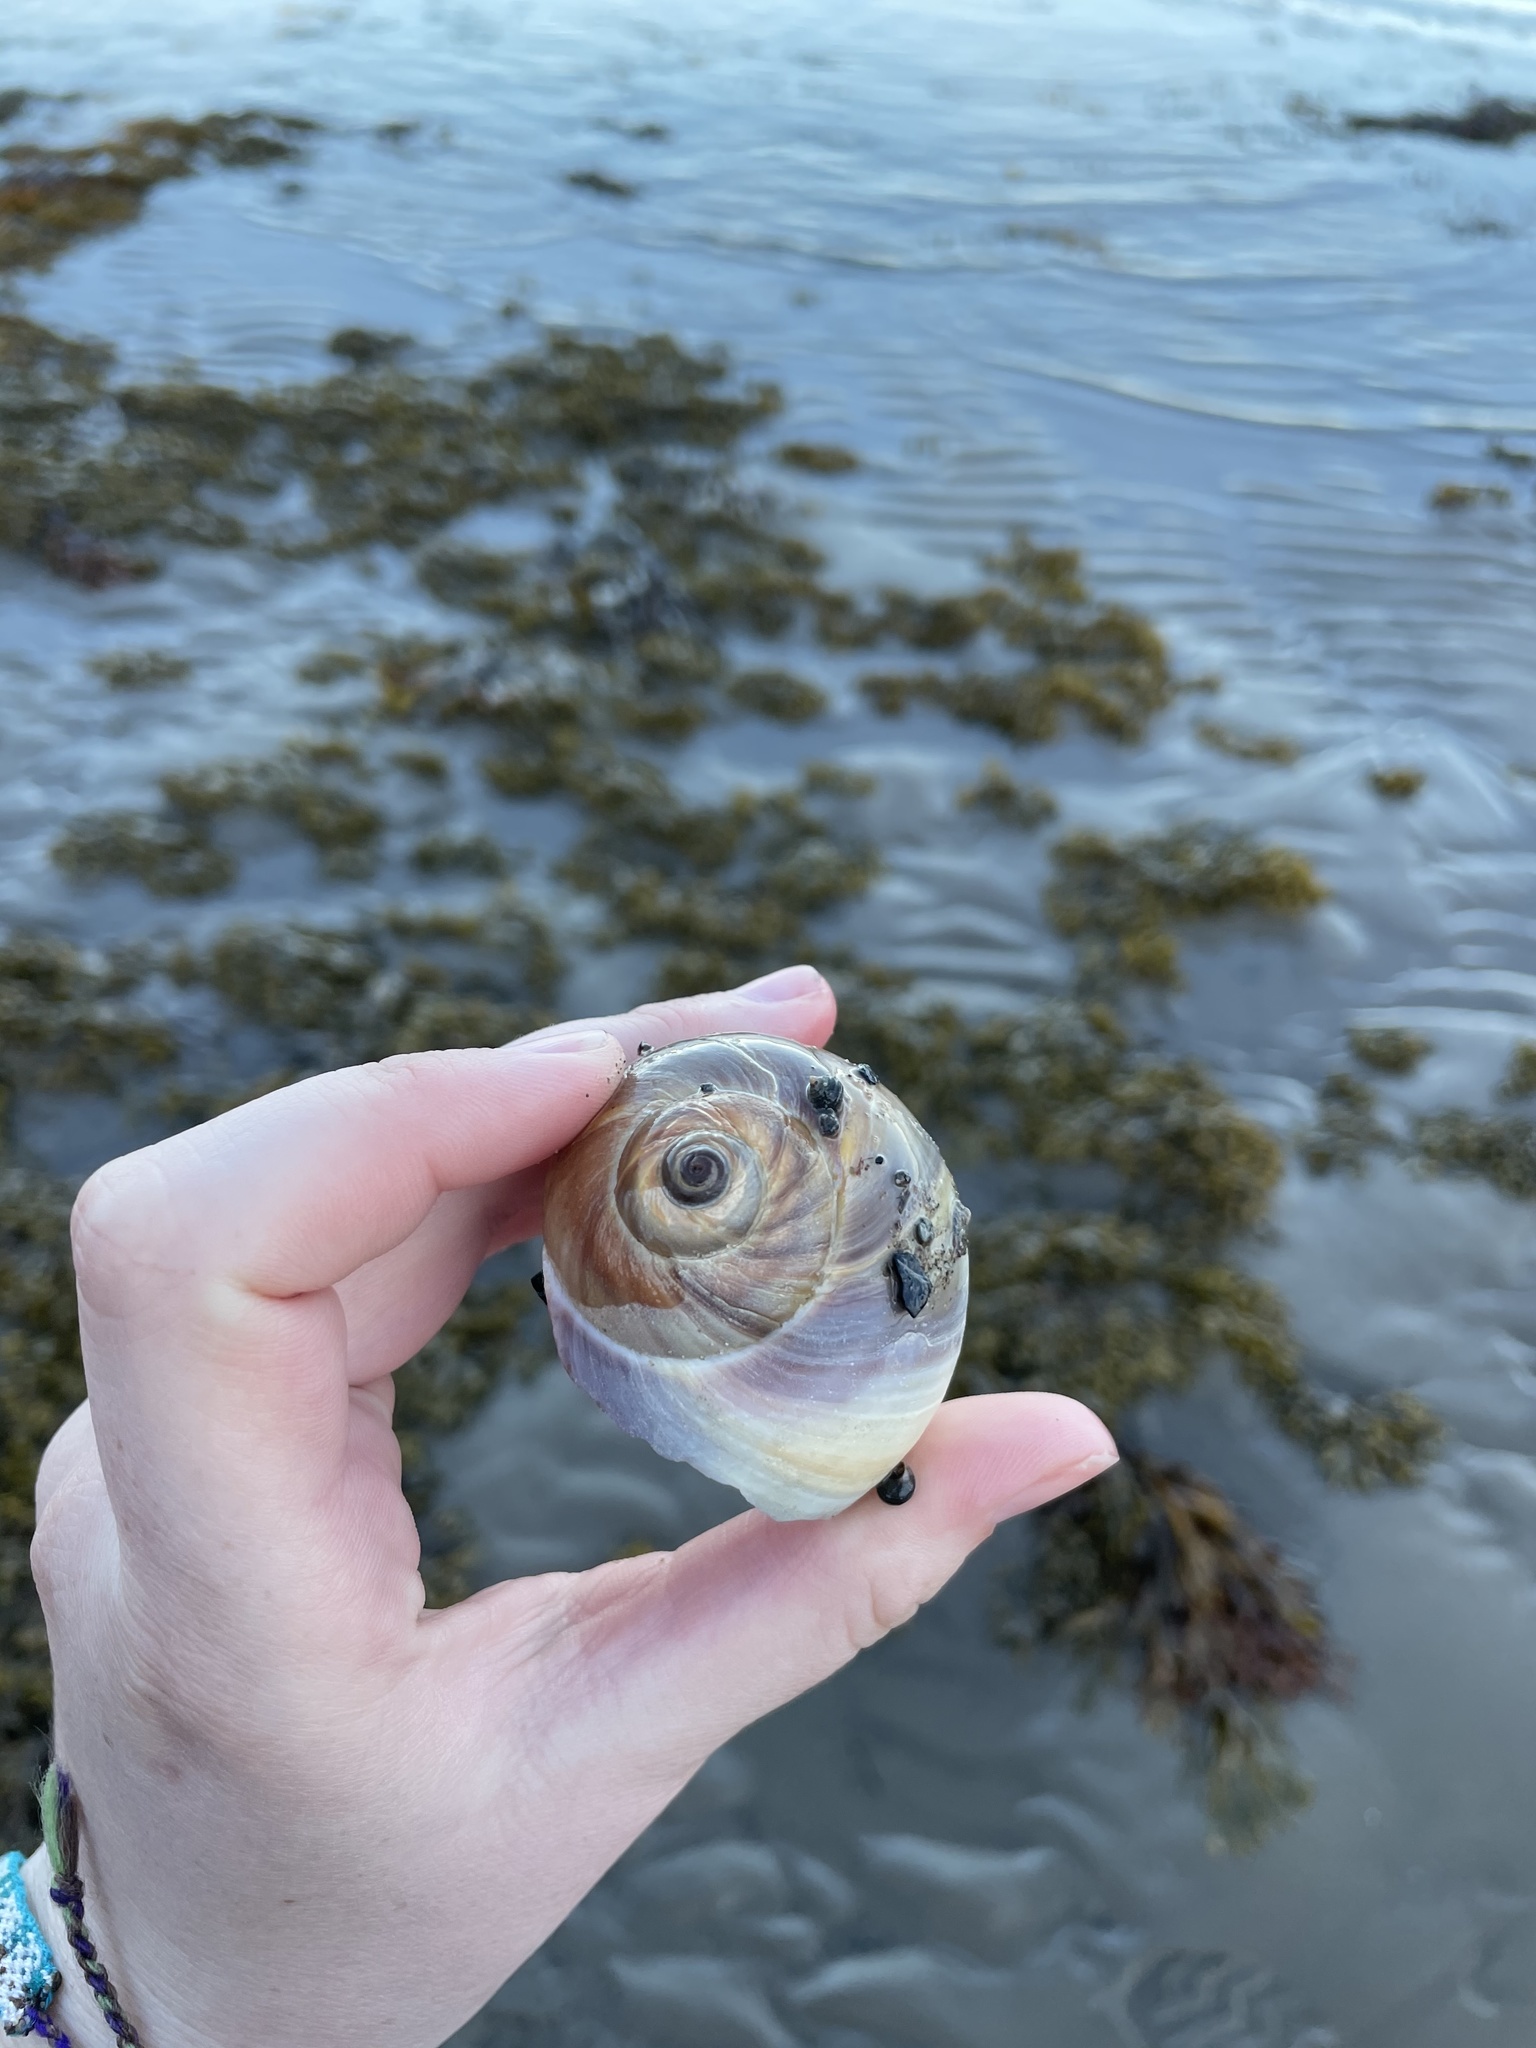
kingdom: Animalia
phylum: Mollusca
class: Gastropoda
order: Littorinimorpha
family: Naticidae
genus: Euspira
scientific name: Euspira heros
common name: Common northern moonsnail
